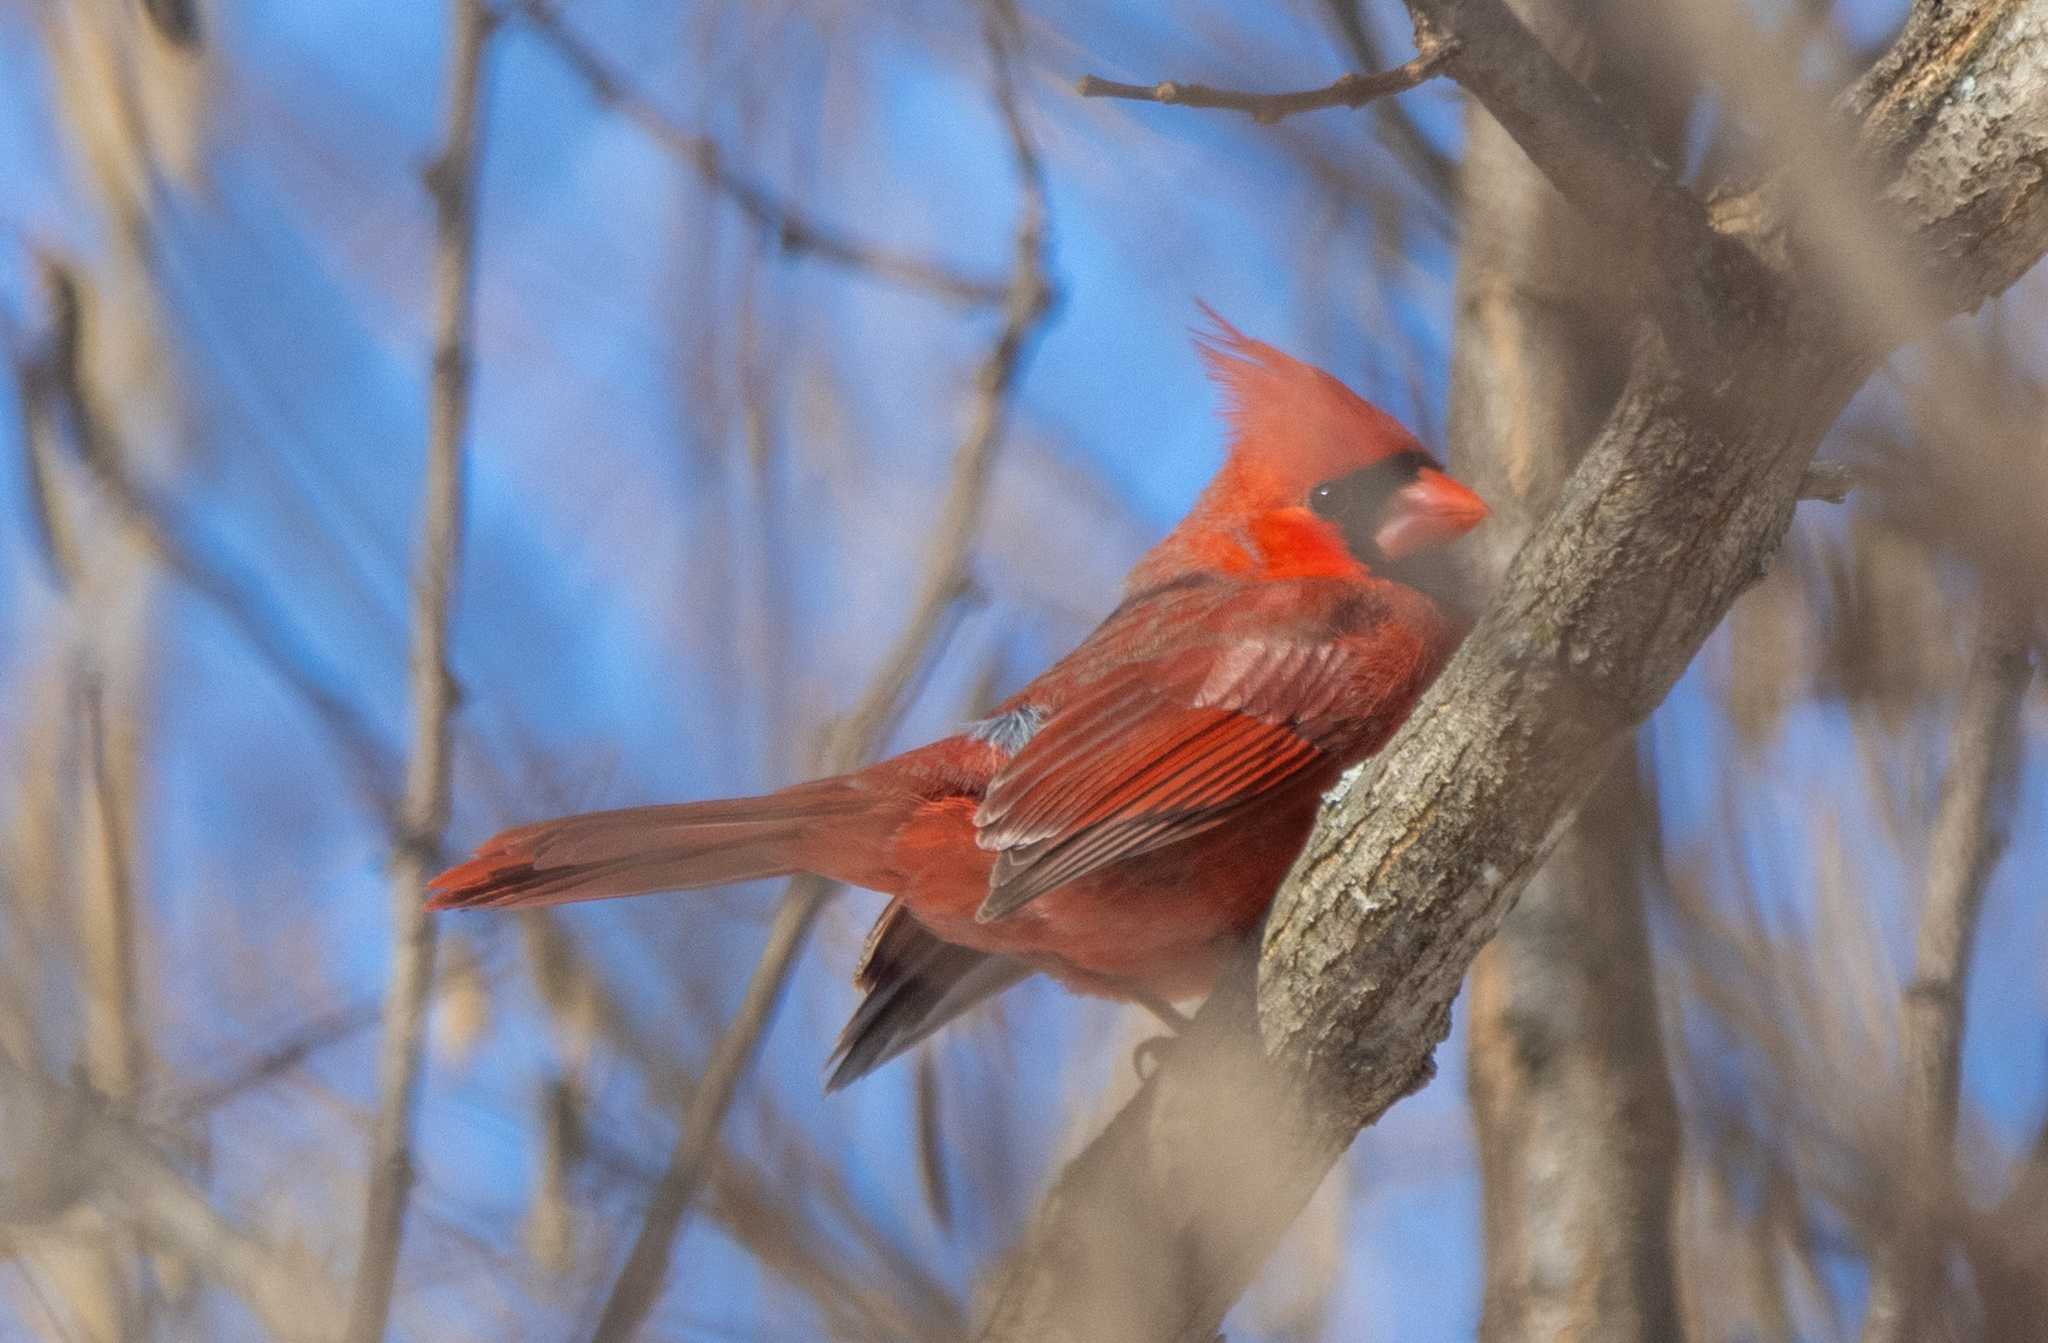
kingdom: Animalia
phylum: Chordata
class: Aves
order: Passeriformes
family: Cardinalidae
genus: Cardinalis
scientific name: Cardinalis cardinalis
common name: Northern cardinal
